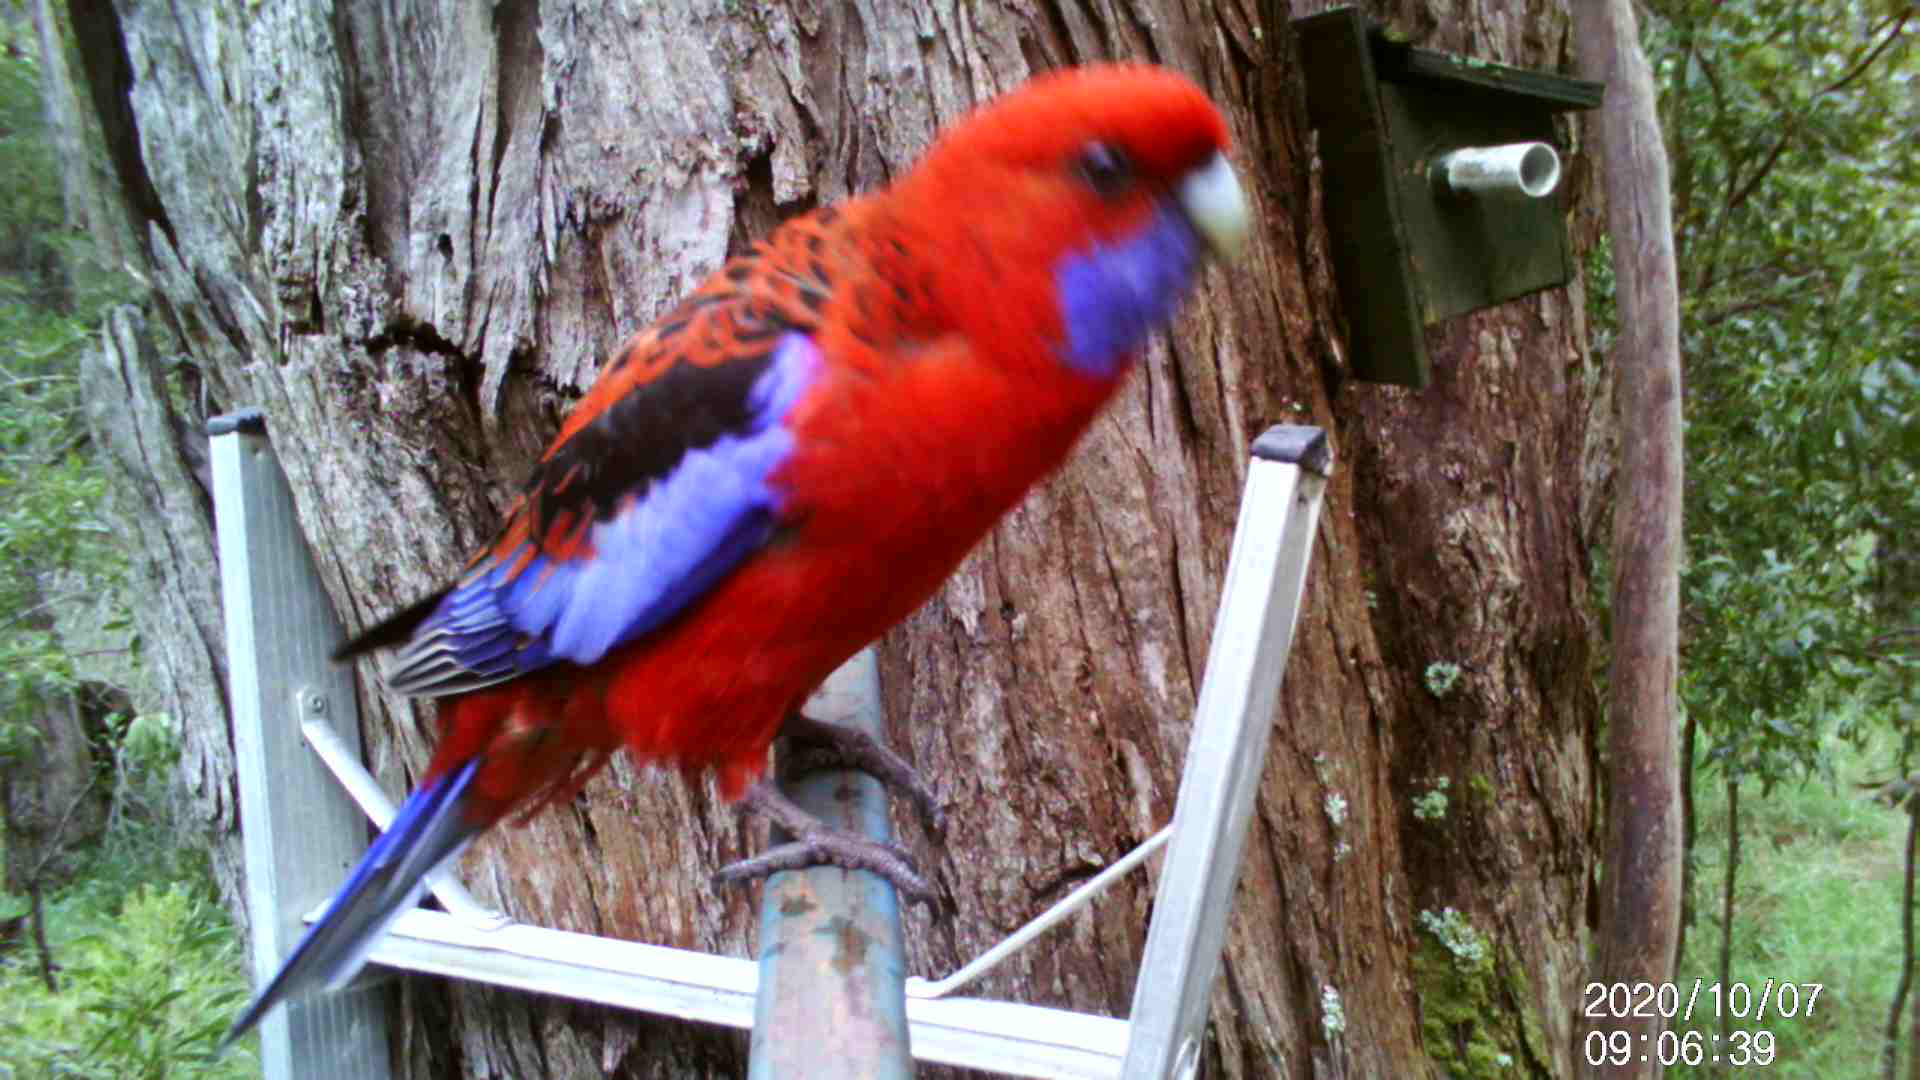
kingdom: Animalia
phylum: Chordata
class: Aves
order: Psittaciformes
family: Psittacidae
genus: Platycercus
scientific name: Platycercus elegans
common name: Crimson rosella
